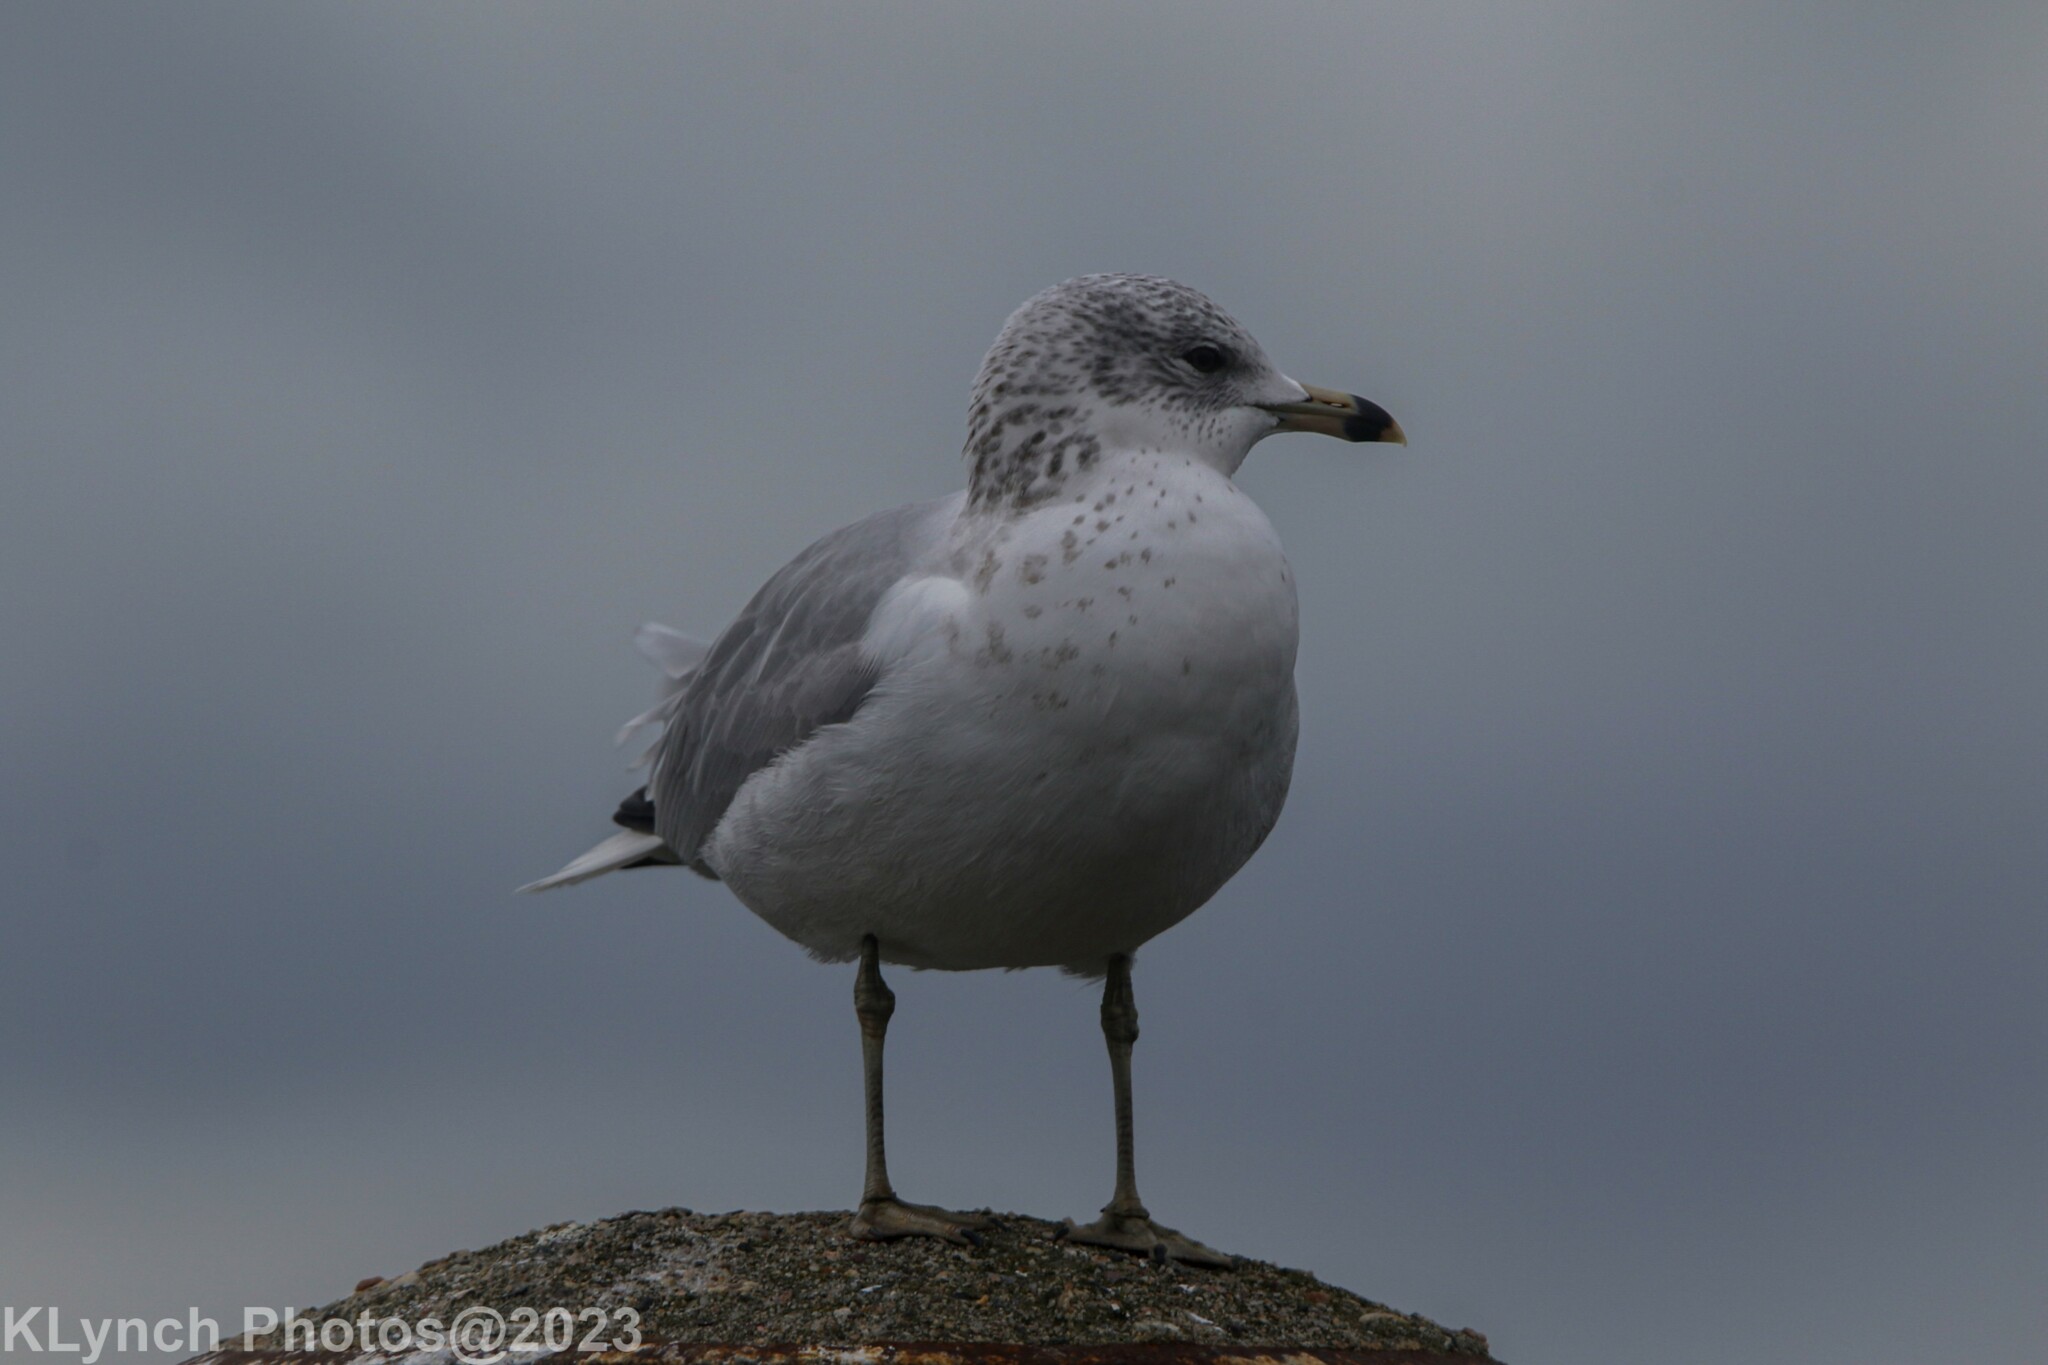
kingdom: Animalia
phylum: Chordata
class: Aves
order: Charadriiformes
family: Laridae
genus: Larus
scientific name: Larus delawarensis
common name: Ring-billed gull
